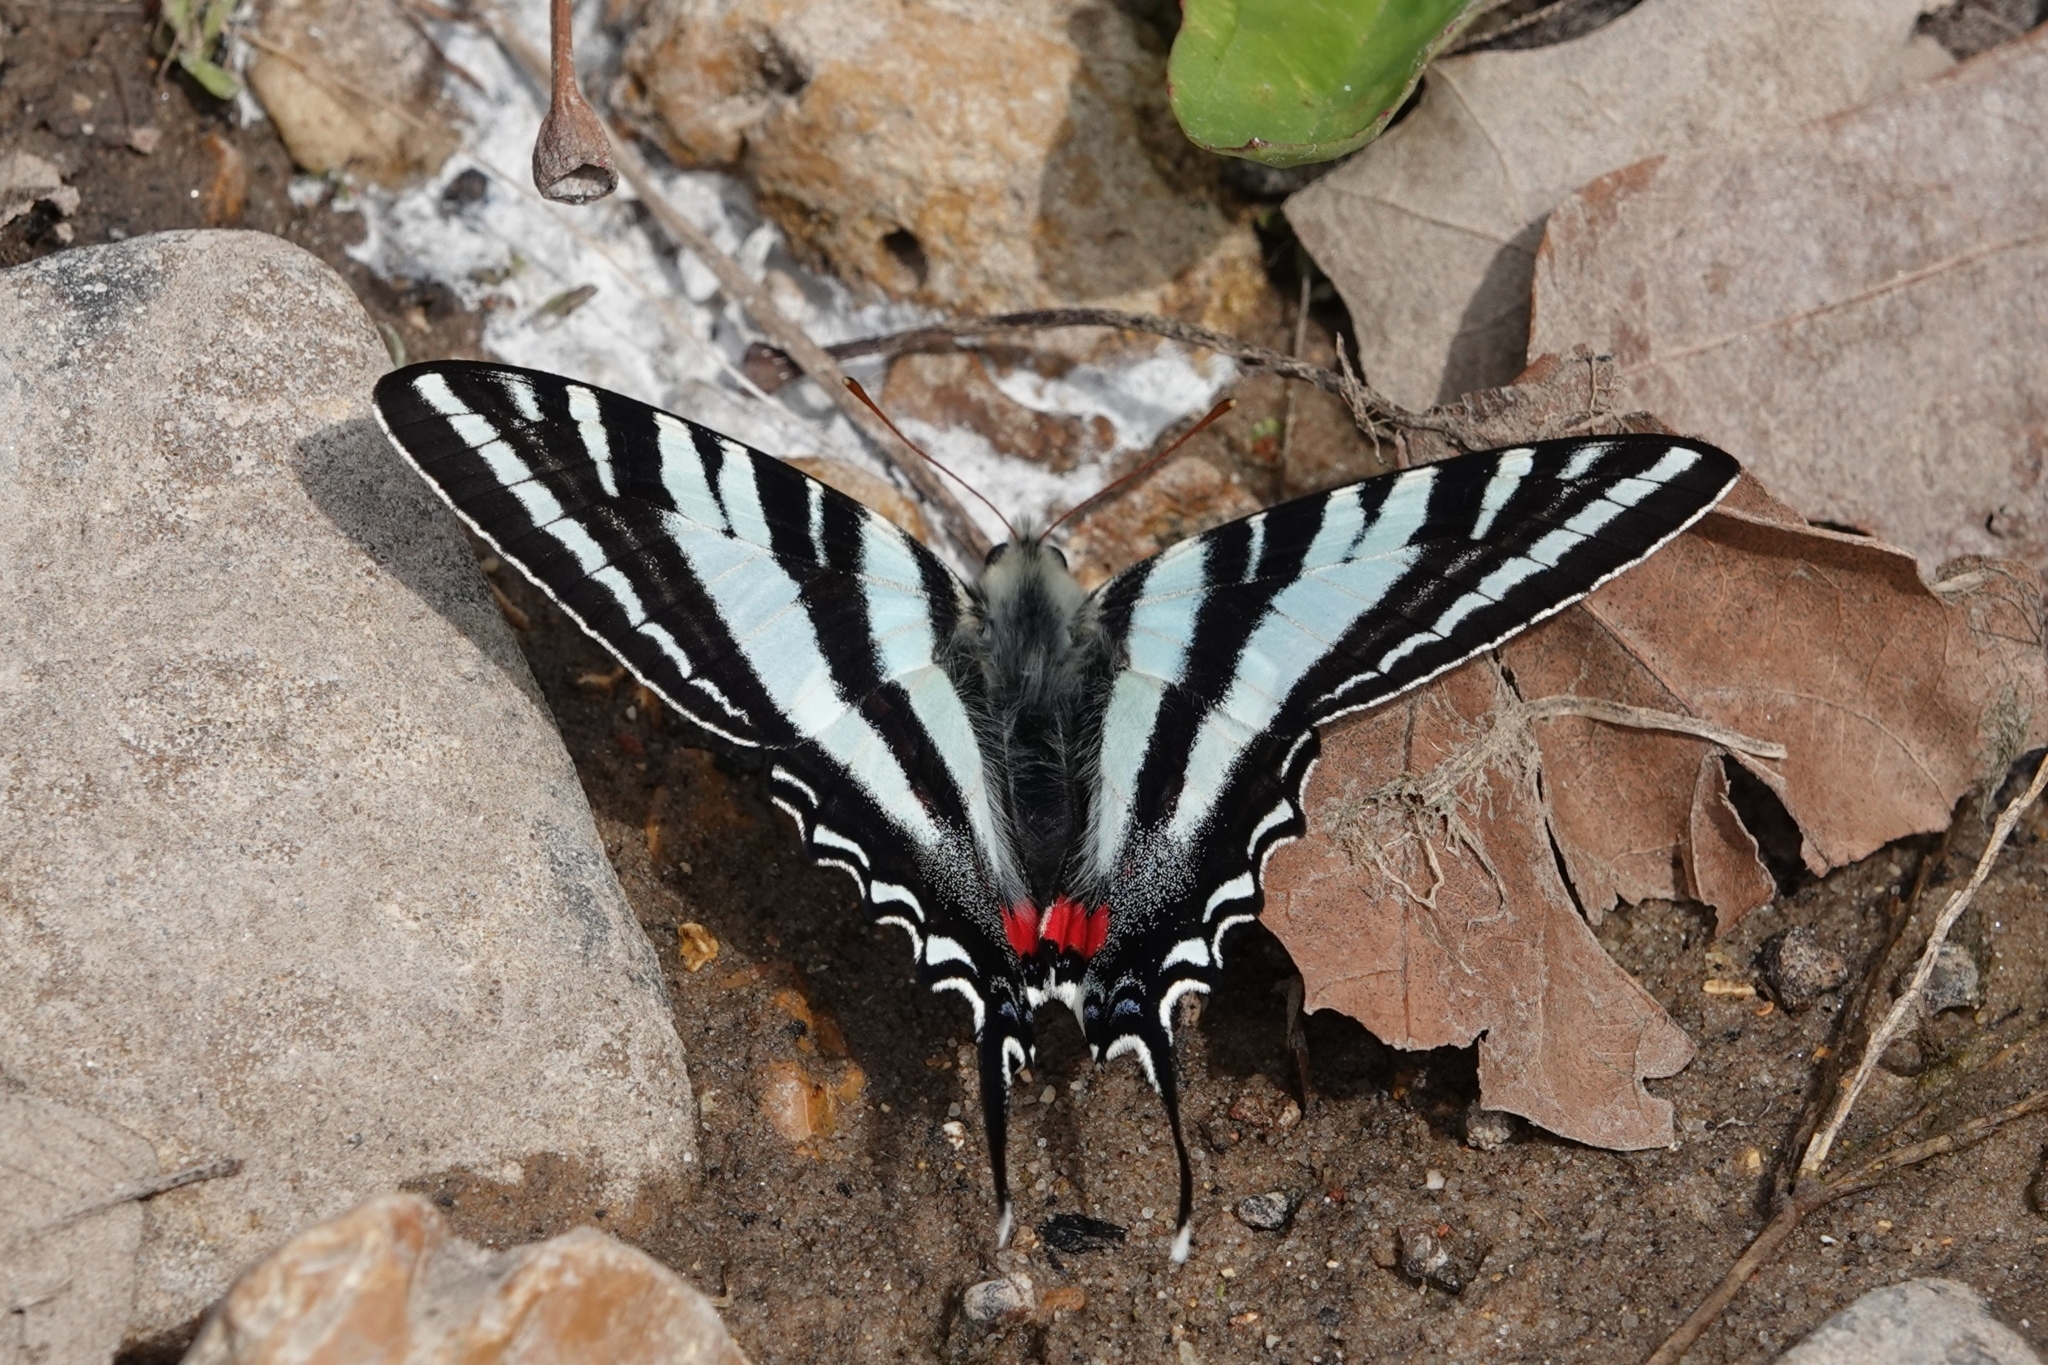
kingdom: Animalia
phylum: Arthropoda
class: Insecta
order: Lepidoptera
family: Papilionidae
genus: Protographium
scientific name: Protographium marcellus
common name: Zebra swallowtail
